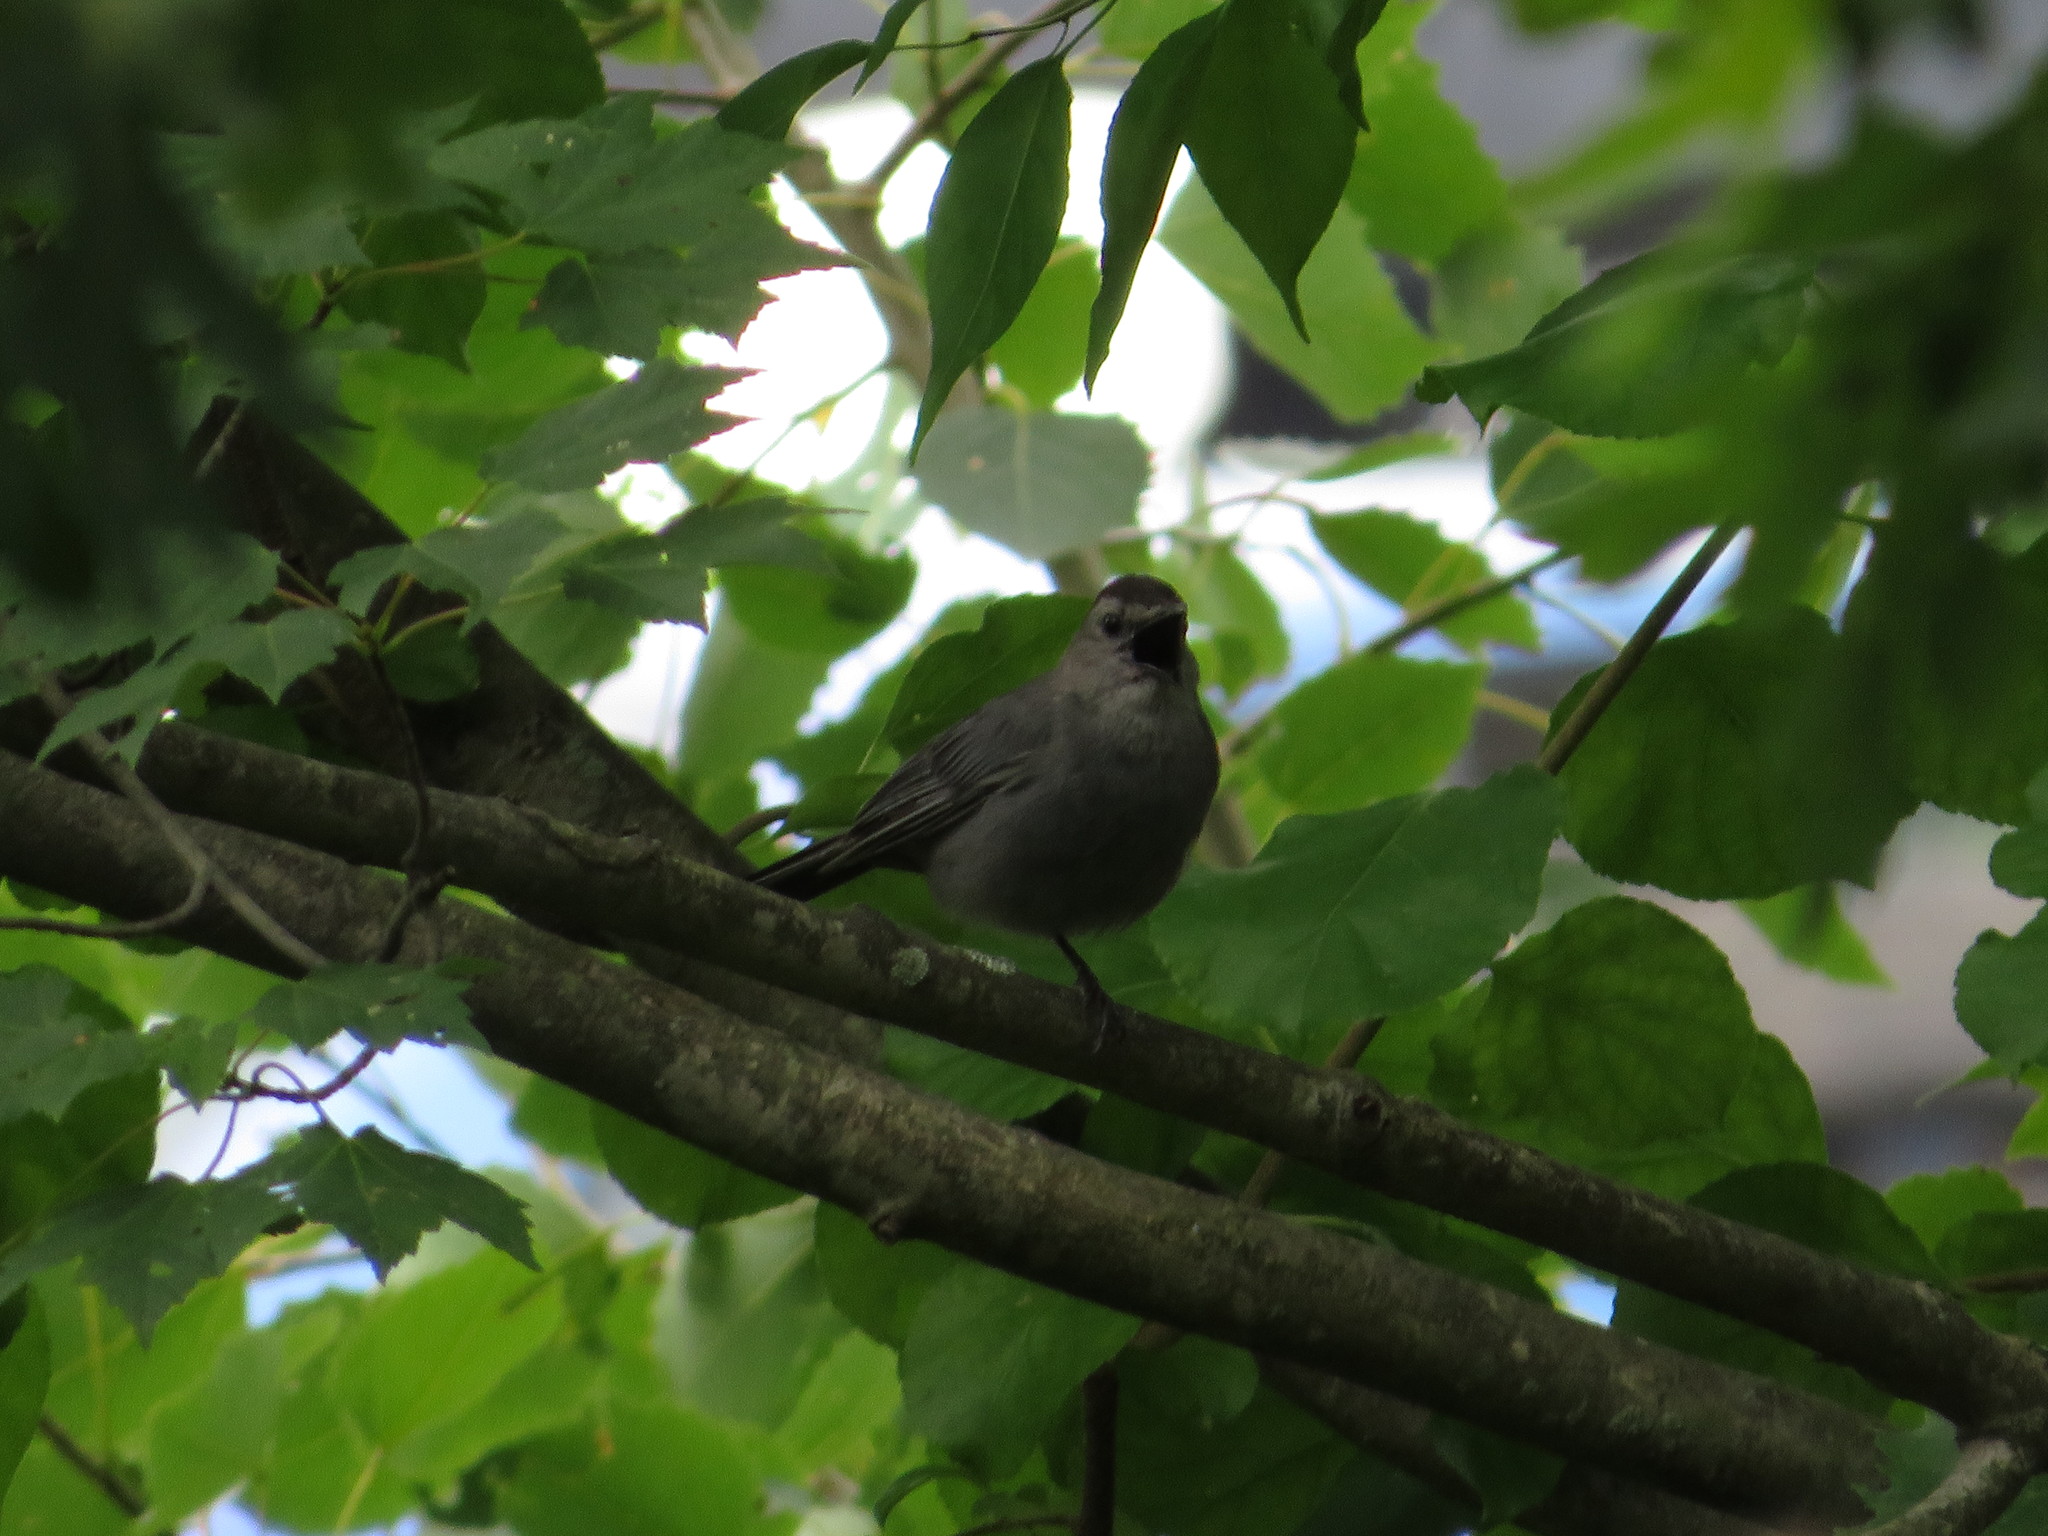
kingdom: Animalia
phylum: Chordata
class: Aves
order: Passeriformes
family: Mimidae
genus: Dumetella
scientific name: Dumetella carolinensis
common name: Gray catbird
